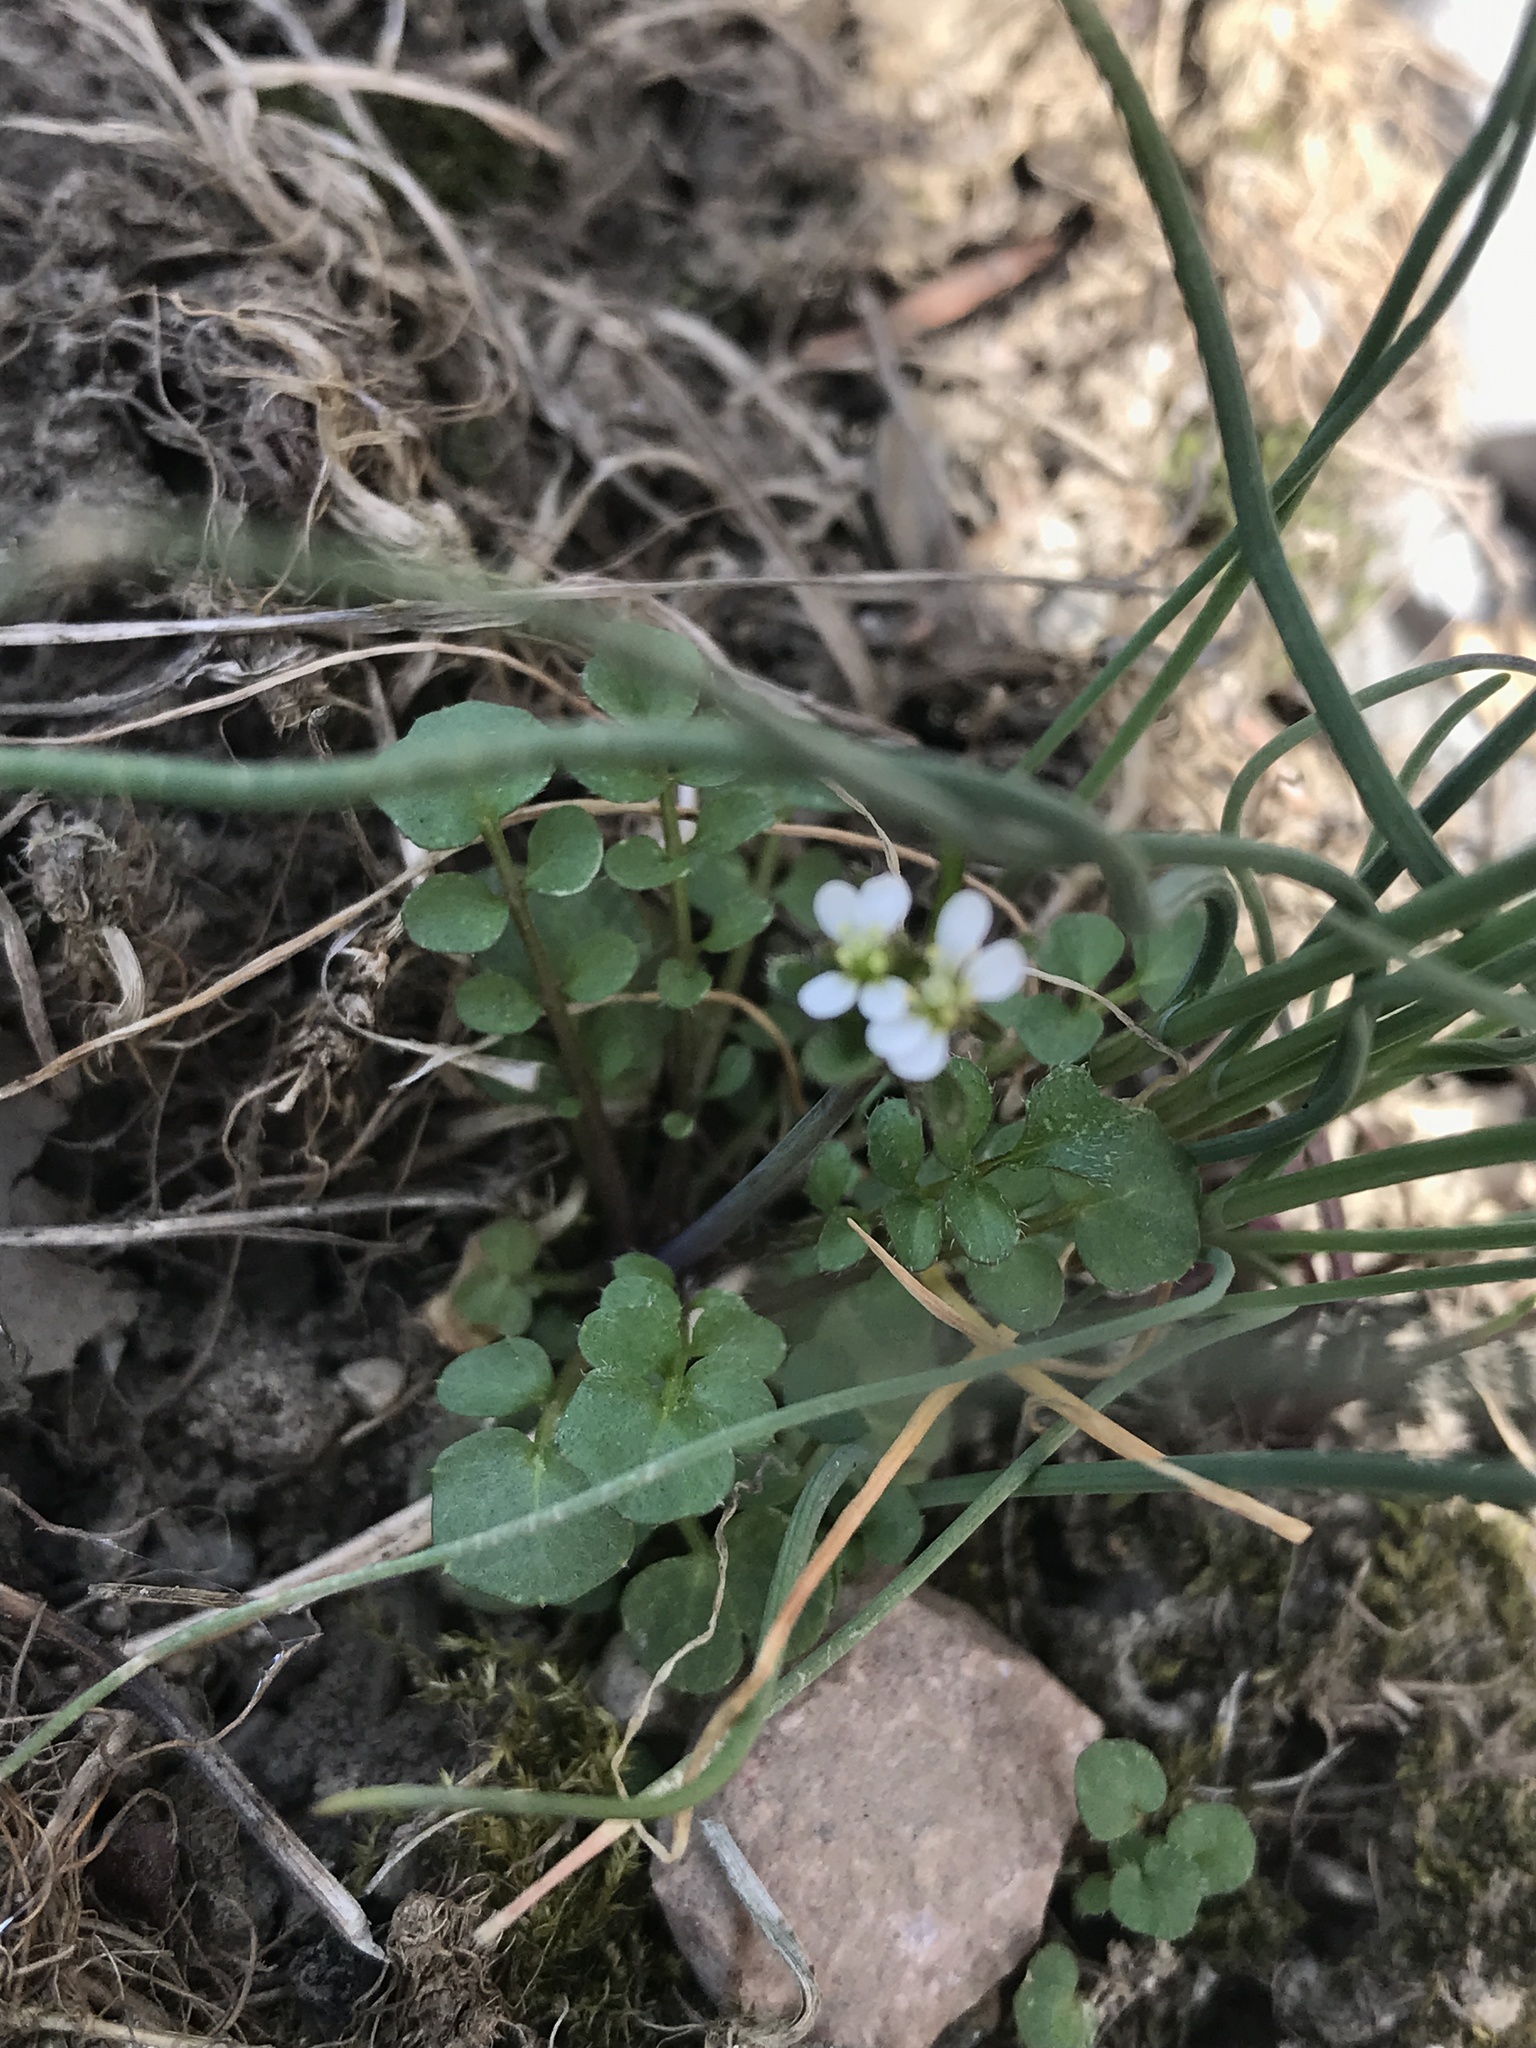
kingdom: Plantae
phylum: Tracheophyta
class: Magnoliopsida
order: Brassicales
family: Brassicaceae
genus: Cardamine
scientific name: Cardamine hirsuta
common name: Hairy bittercress
